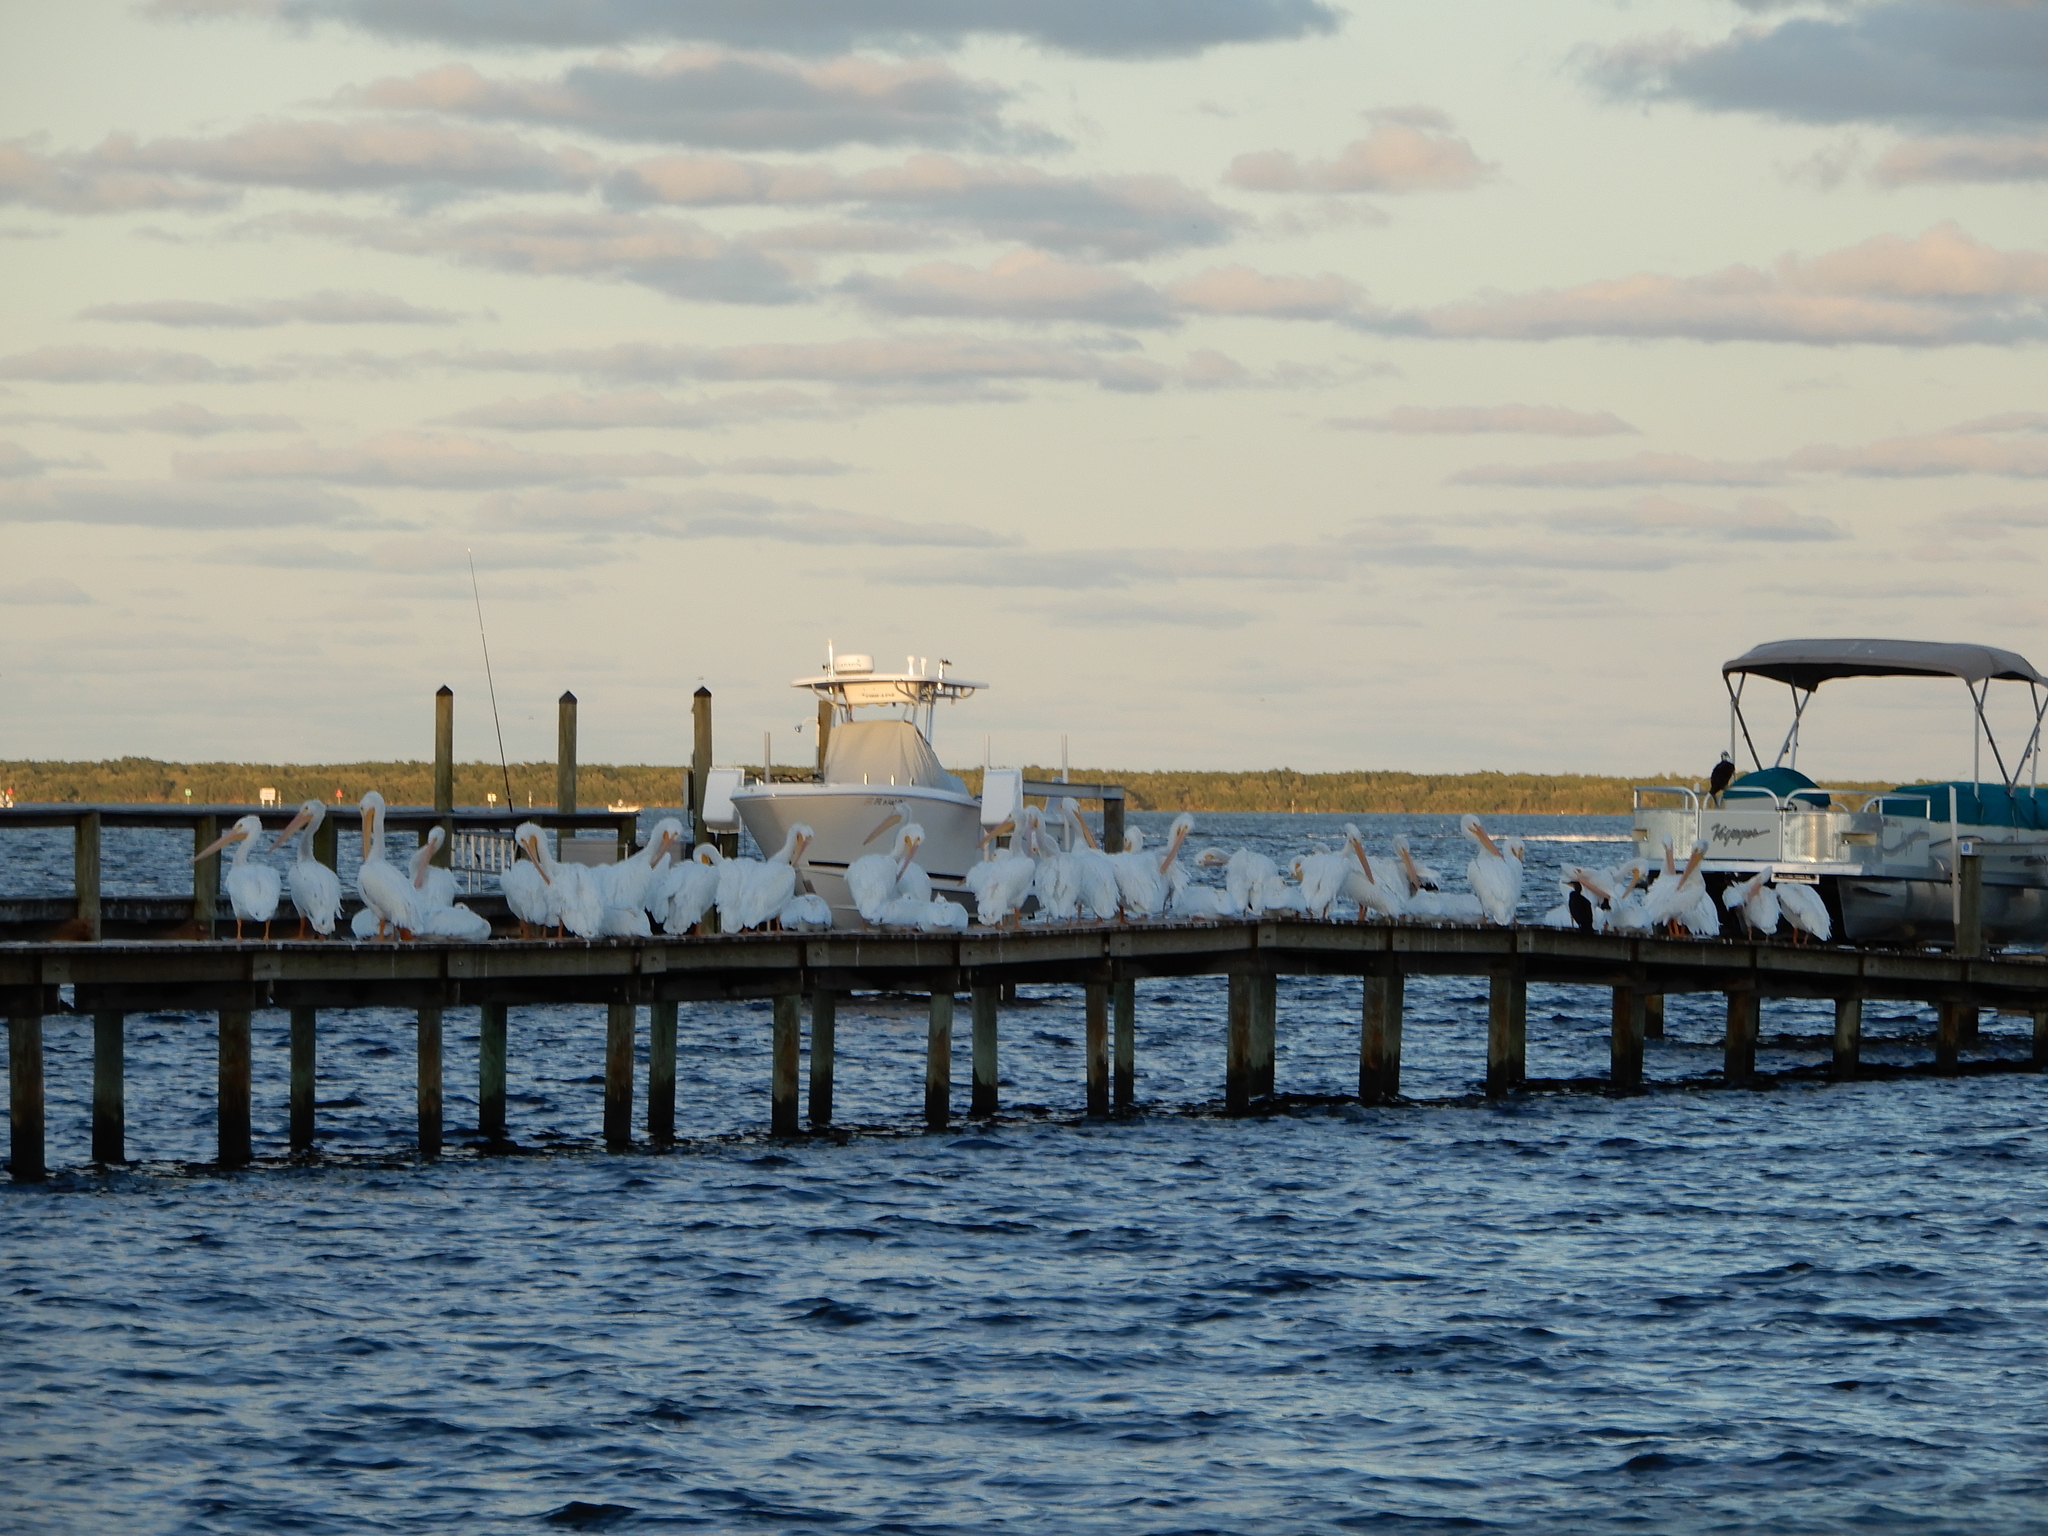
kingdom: Animalia
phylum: Chordata
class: Aves
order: Pelecaniformes
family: Pelecanidae
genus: Pelecanus
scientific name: Pelecanus erythrorhynchos
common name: American white pelican
